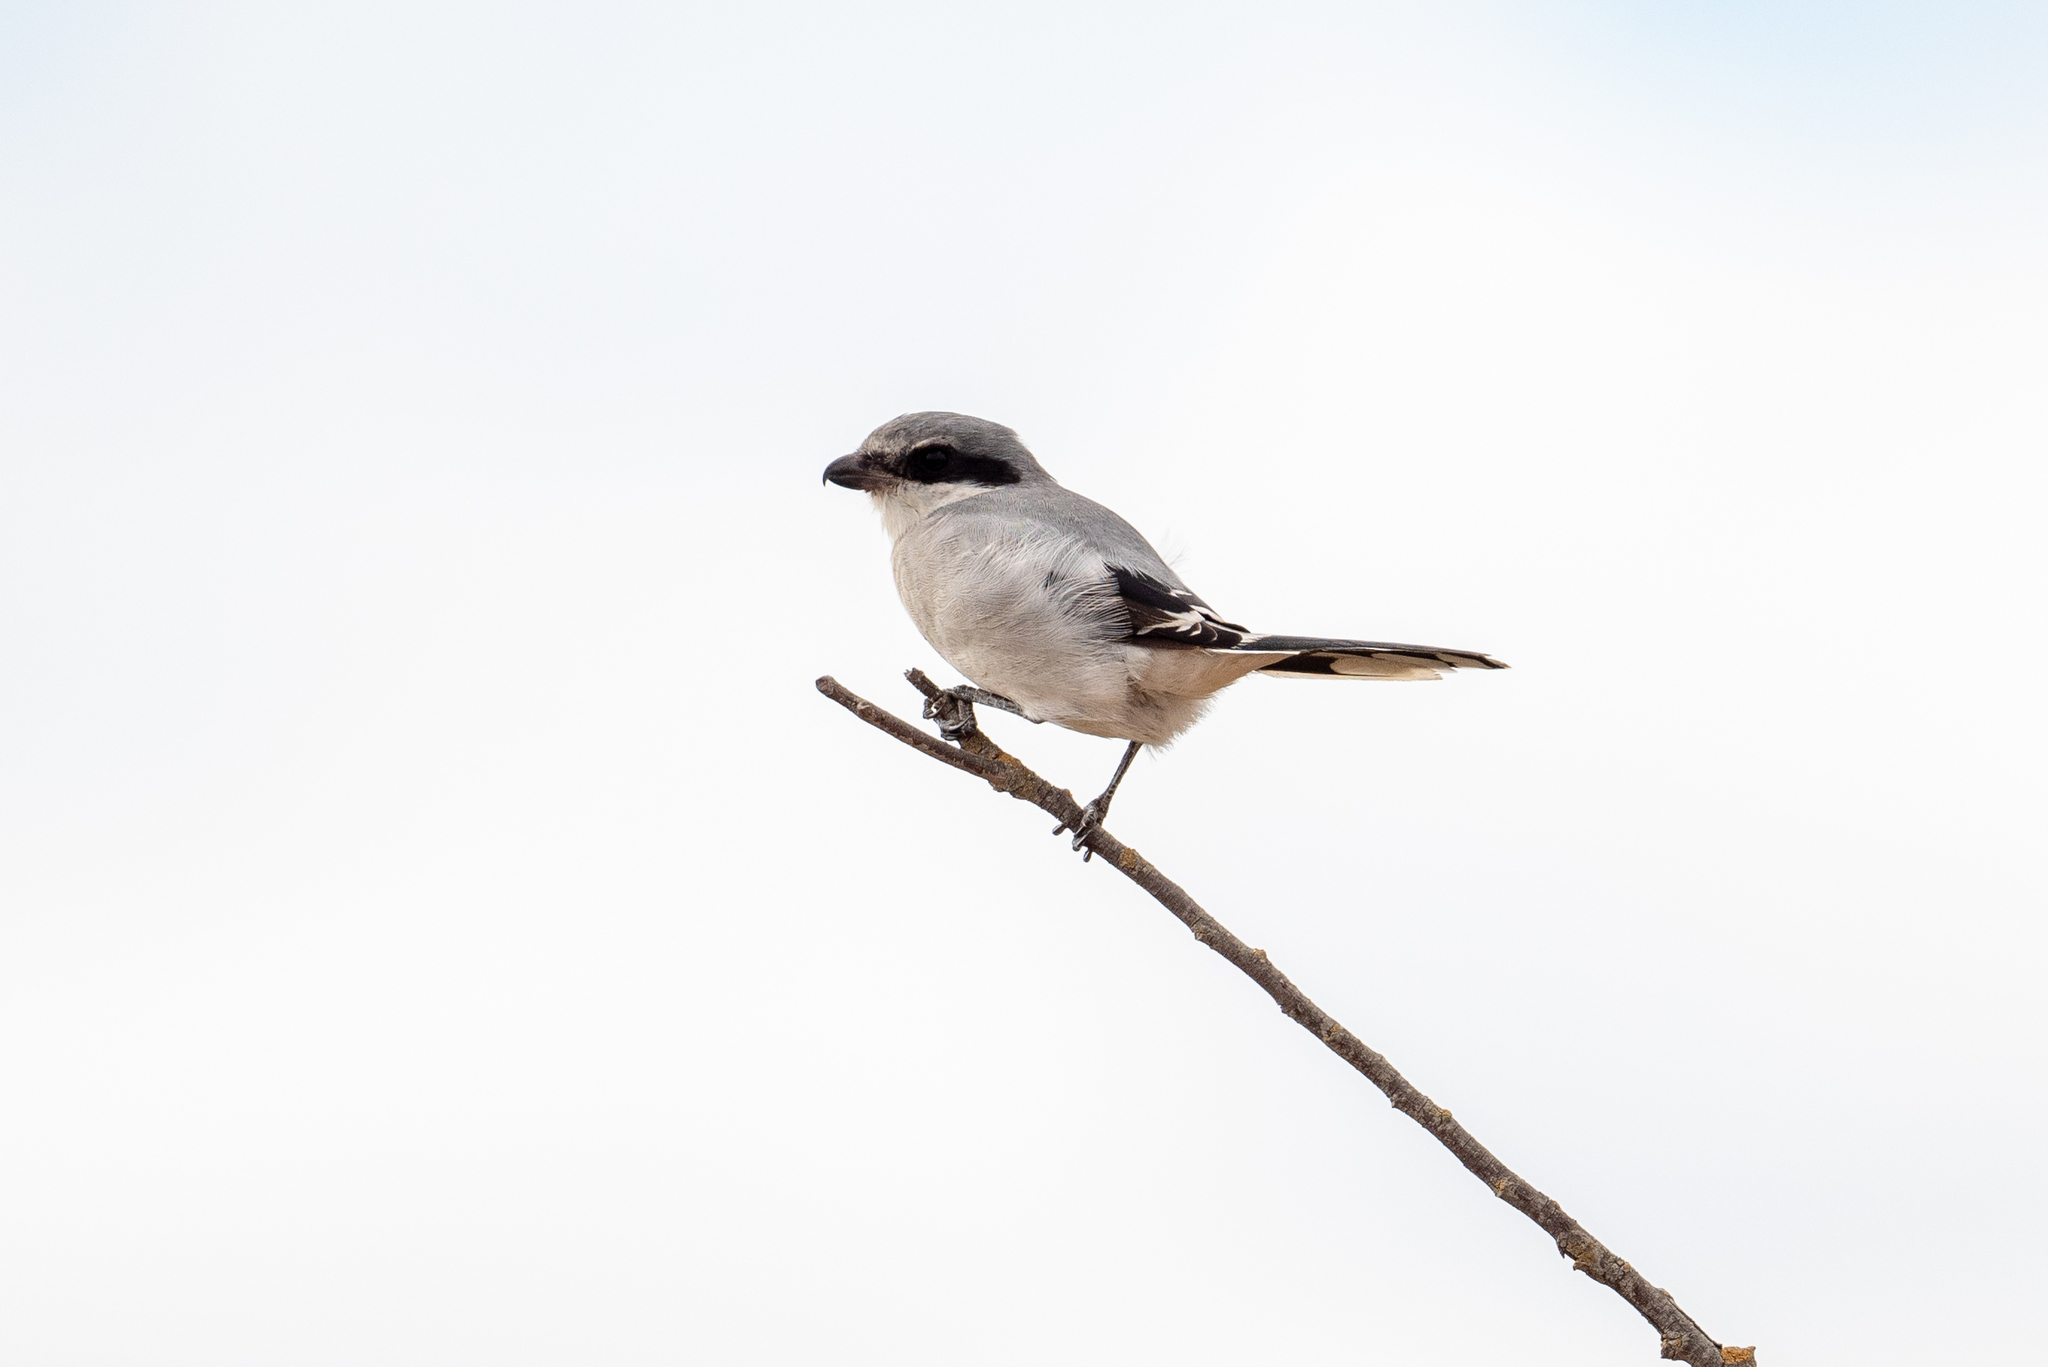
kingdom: Animalia
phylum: Chordata
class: Aves
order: Passeriformes
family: Laniidae
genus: Lanius
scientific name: Lanius ludovicianus
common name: Loggerhead shrike
